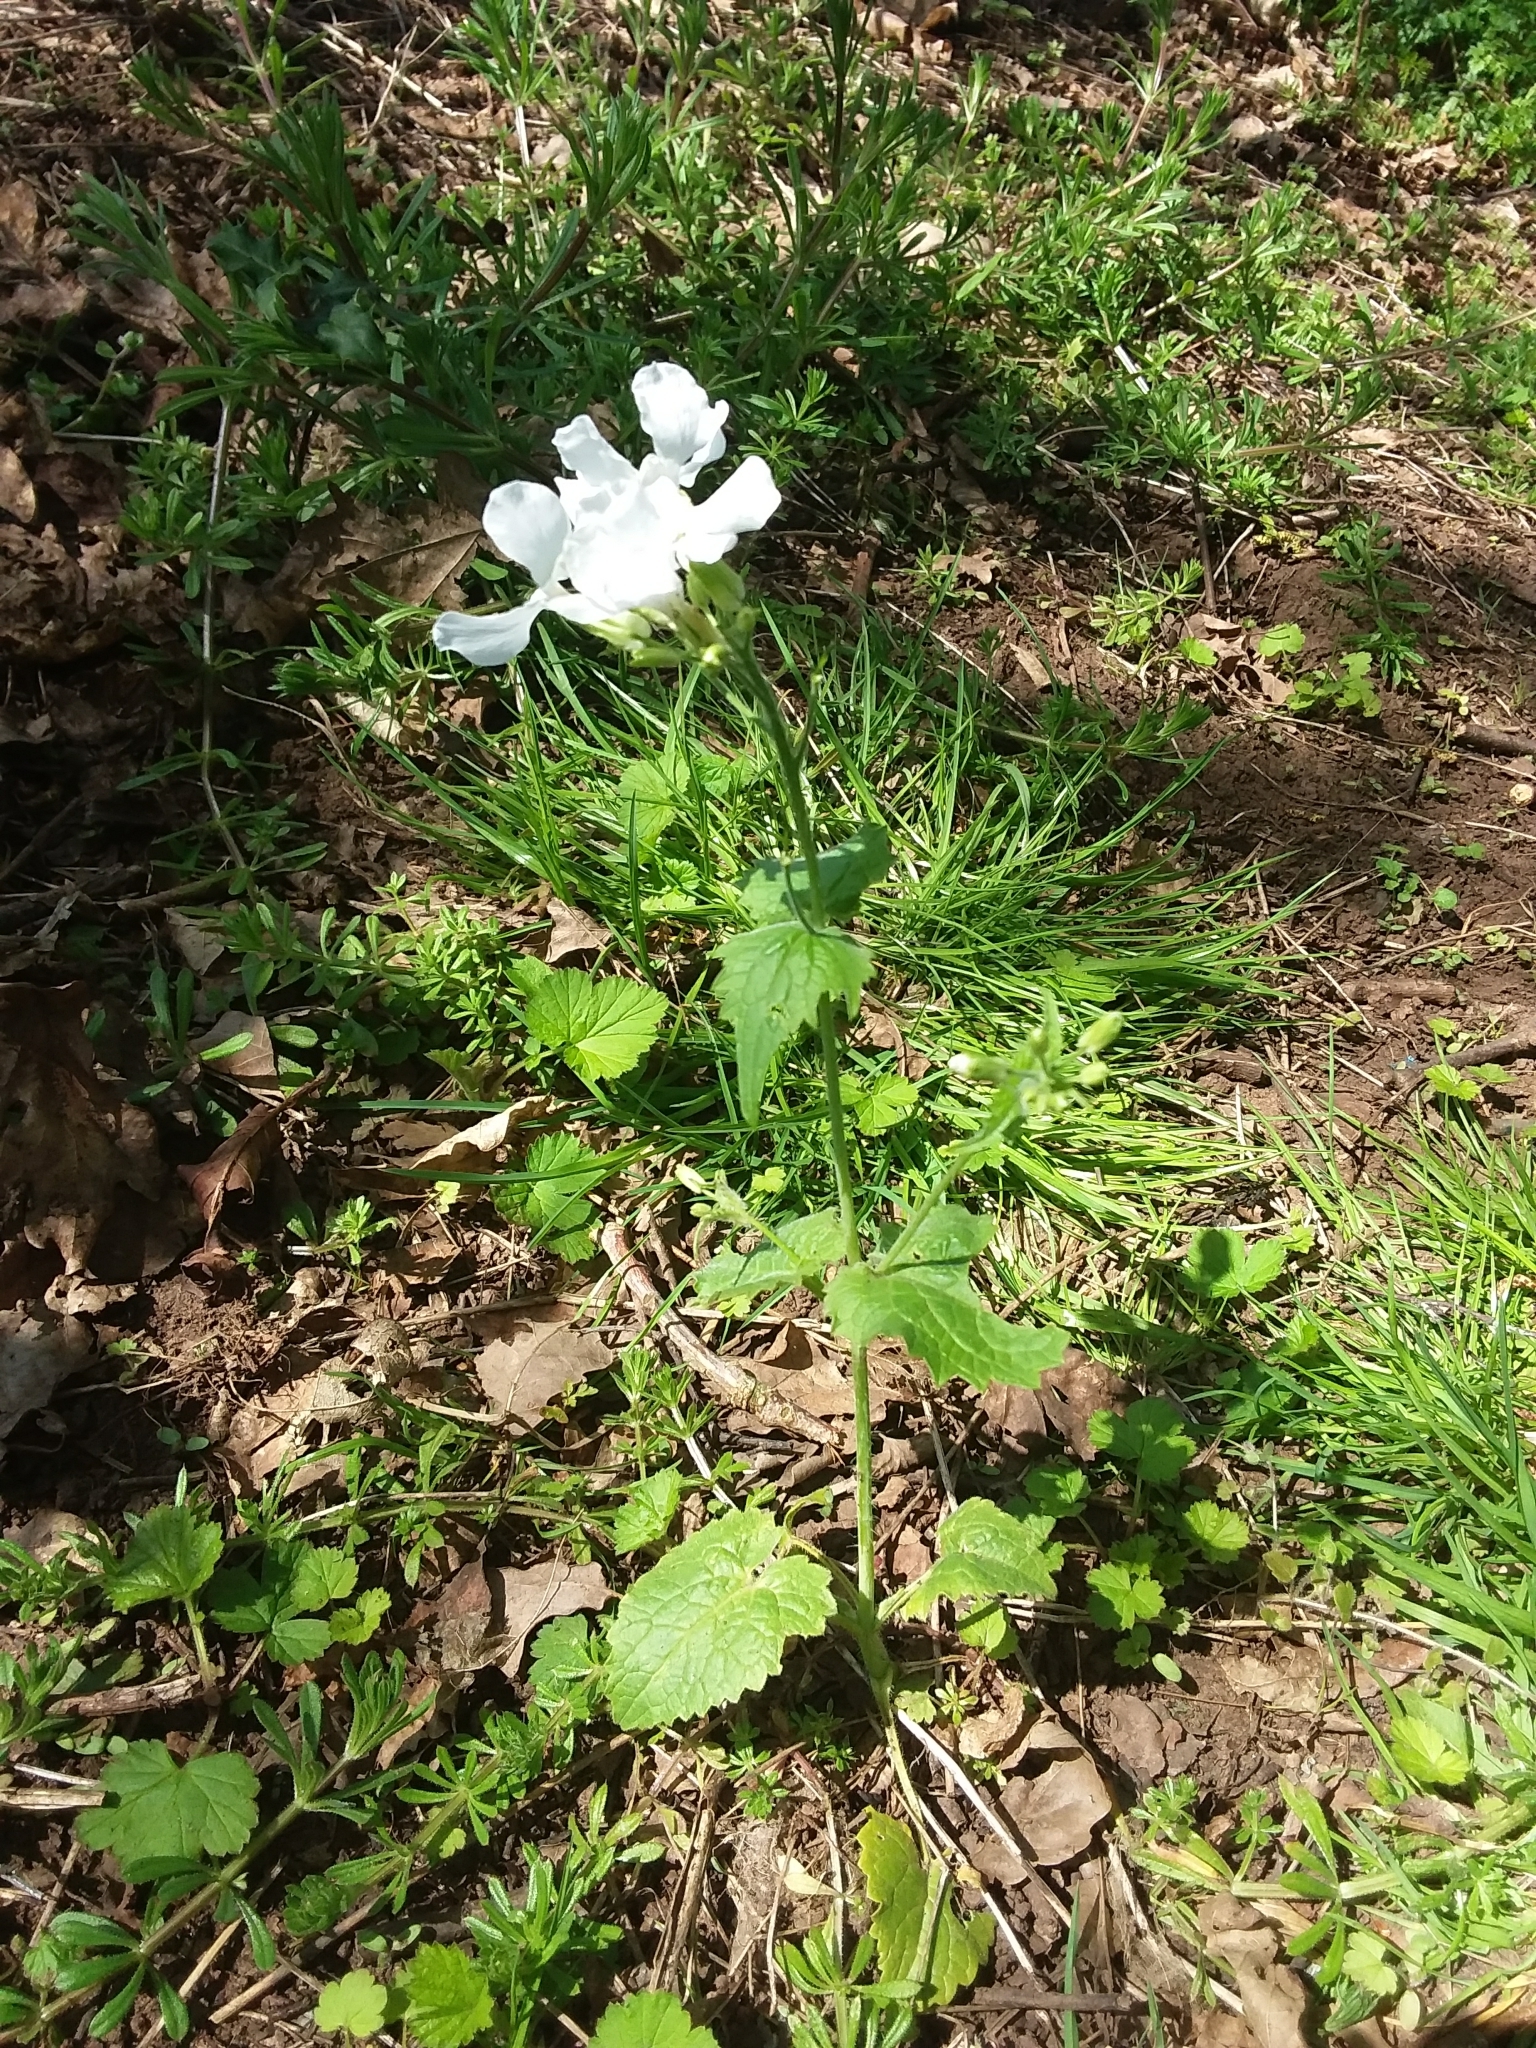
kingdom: Plantae
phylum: Tracheophyta
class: Magnoliopsida
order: Brassicales
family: Brassicaceae
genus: Lunaria
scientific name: Lunaria annua
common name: Honesty
